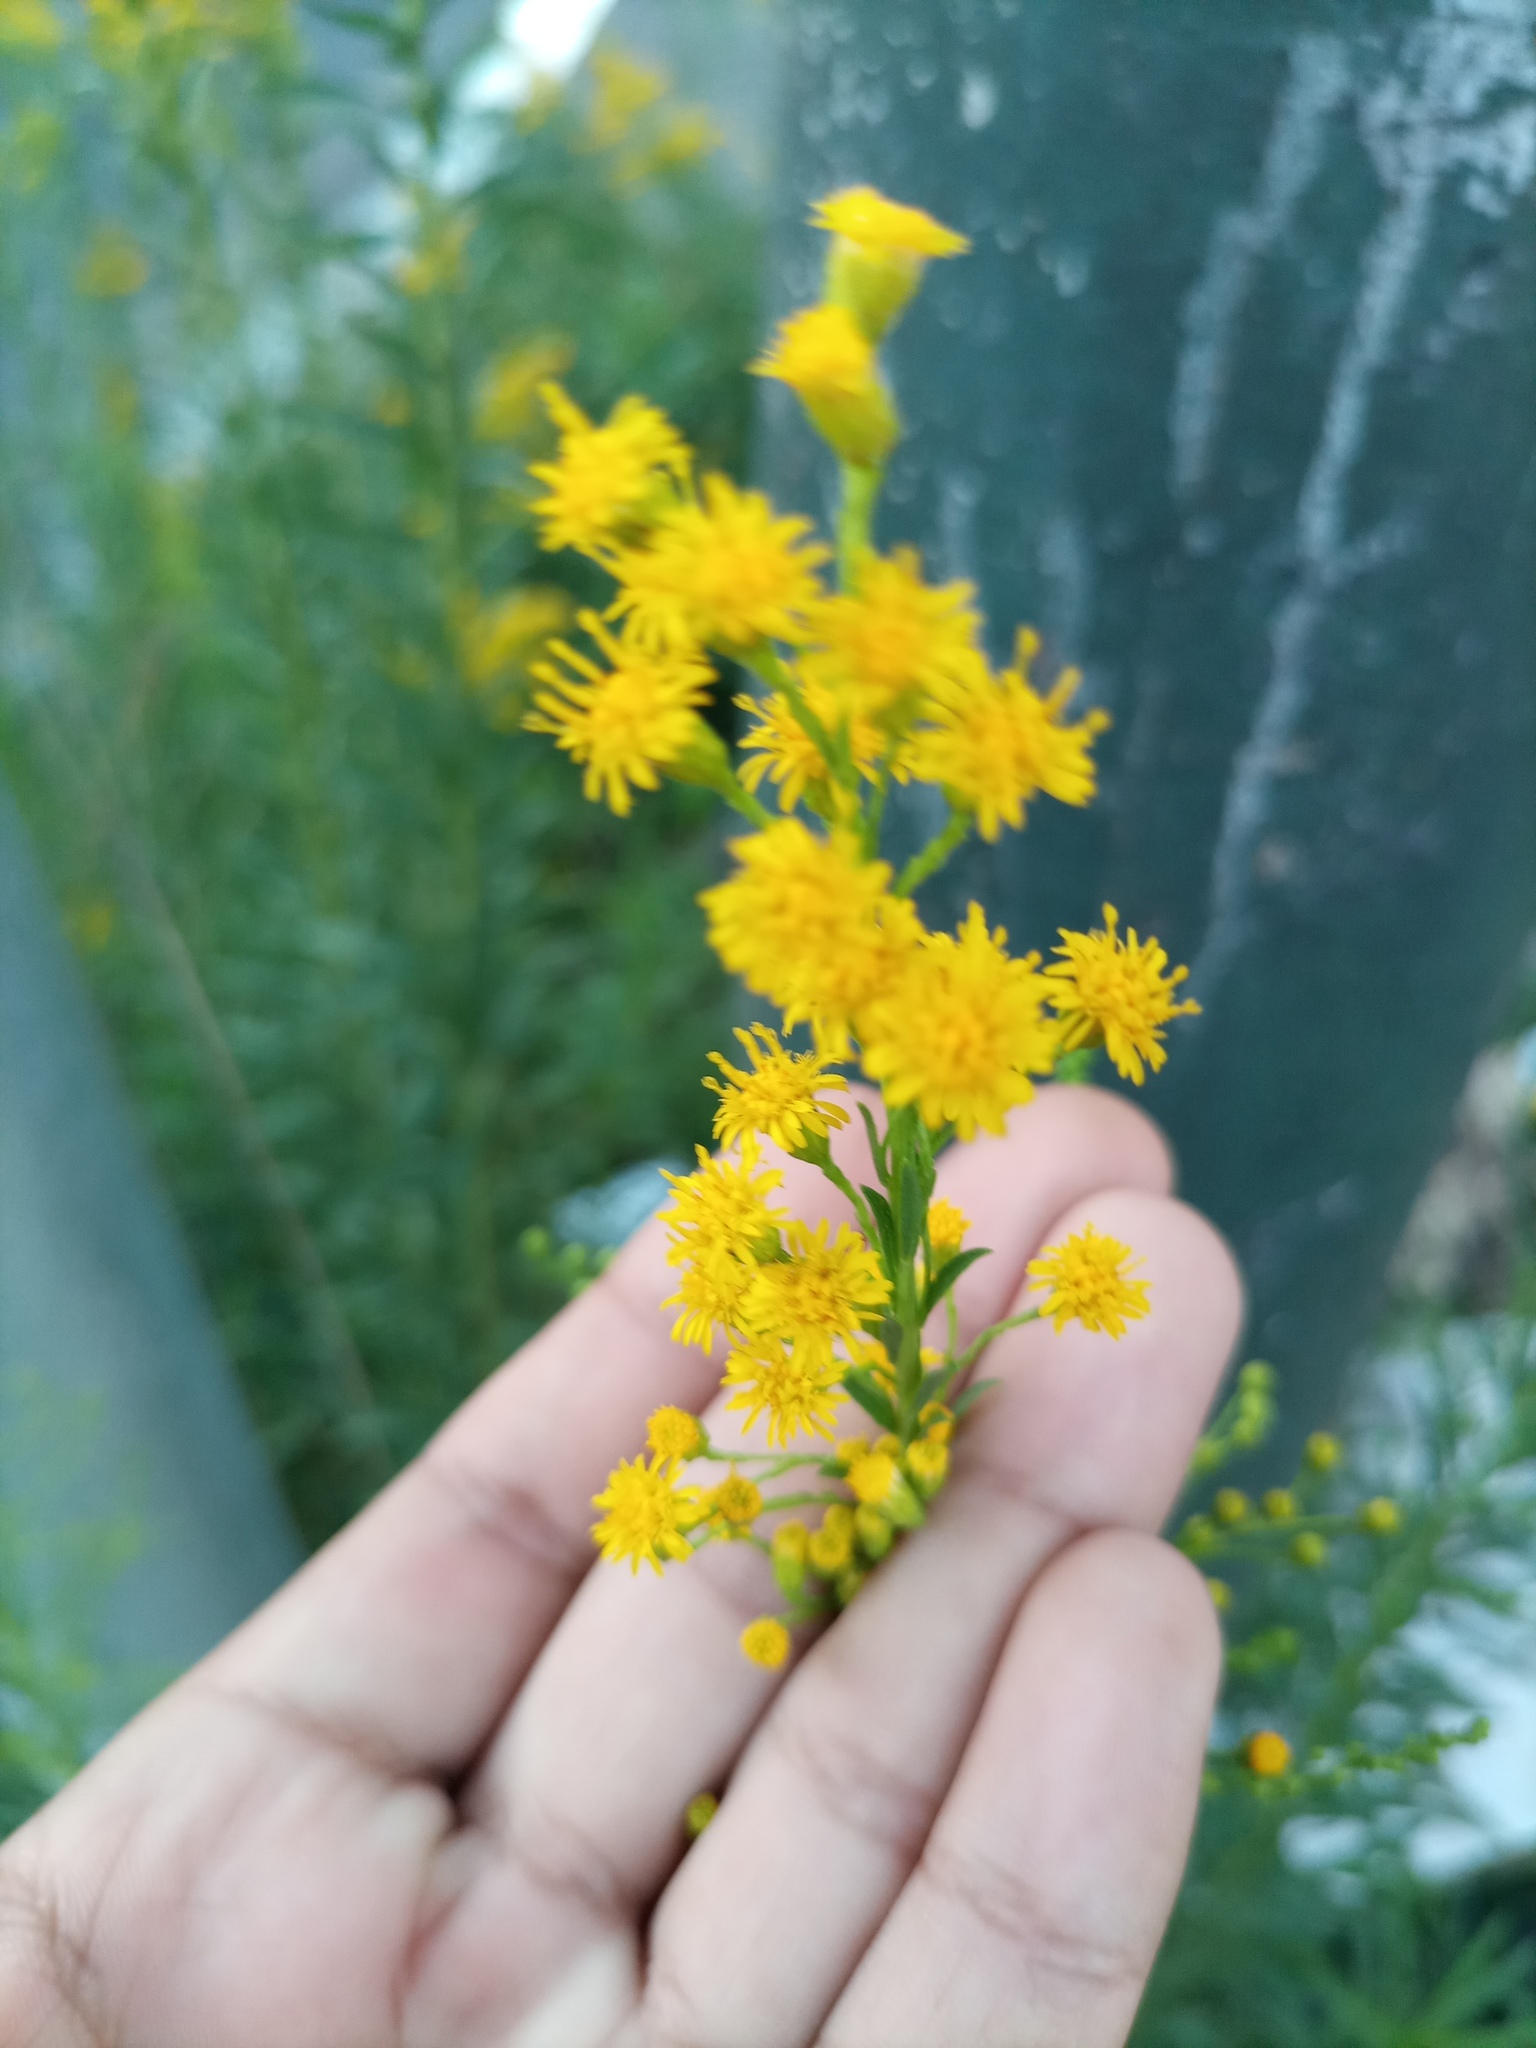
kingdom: Plantae
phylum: Tracheophyta
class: Magnoliopsida
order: Asterales
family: Asteraceae
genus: Solidago
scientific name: Solidago chilensis
